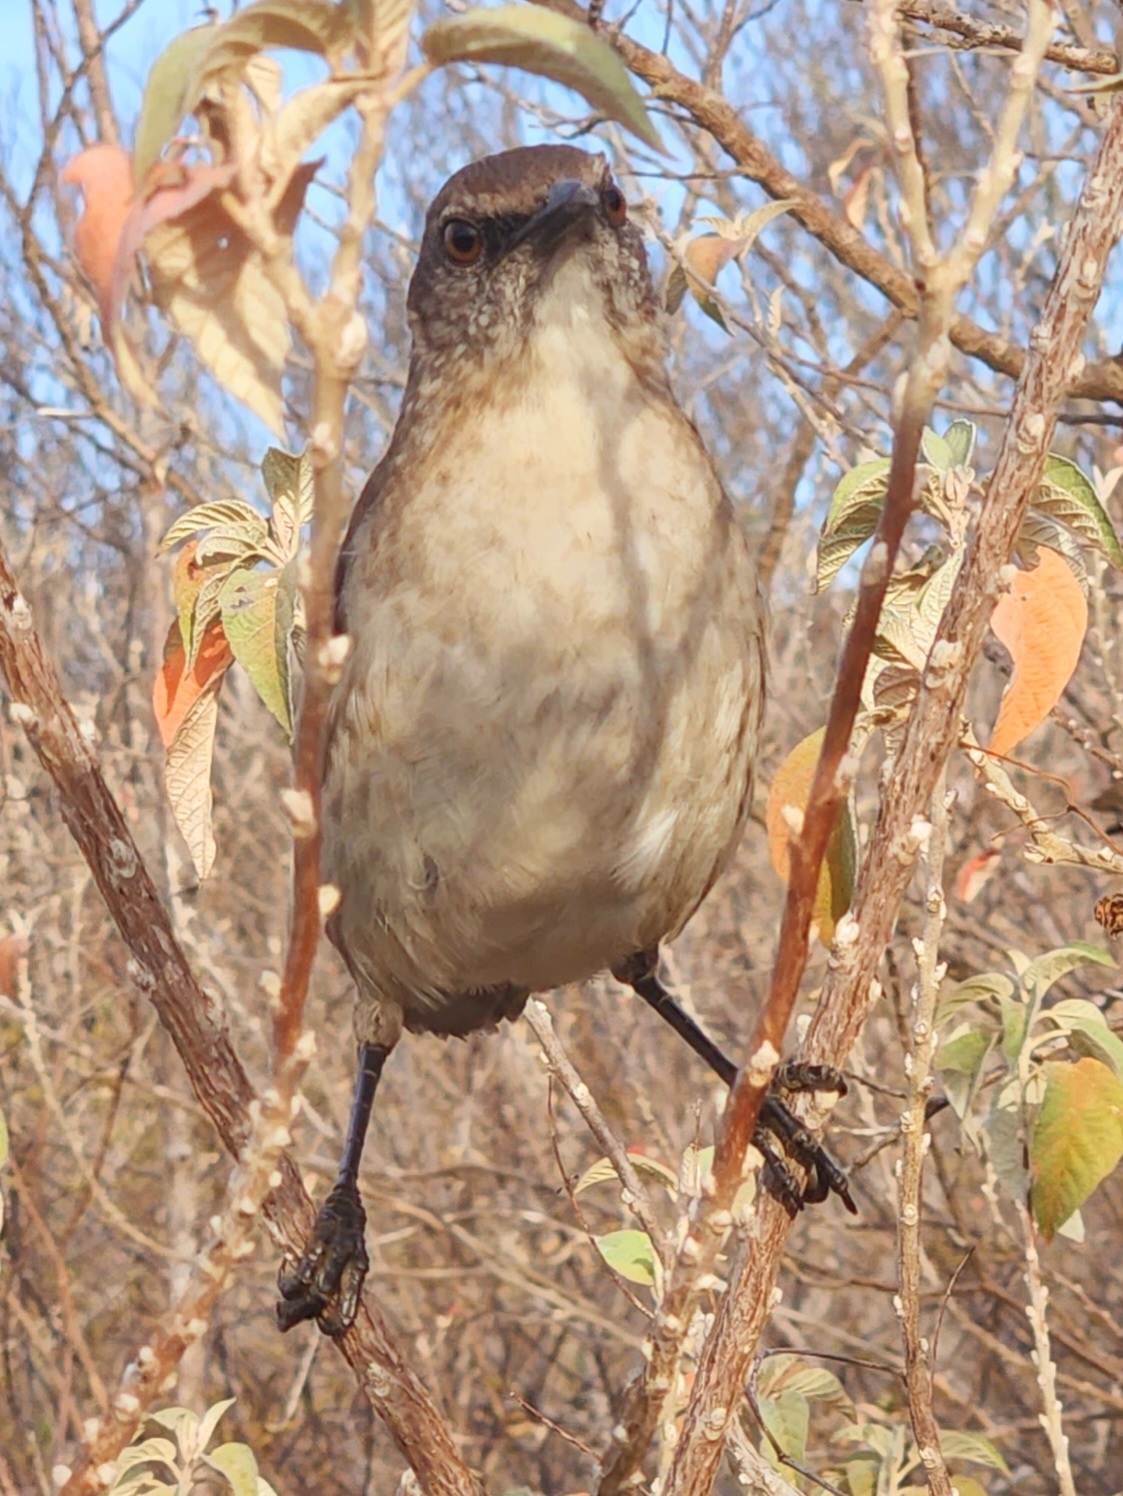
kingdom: Animalia
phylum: Chordata
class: Aves
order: Passeriformes
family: Mimidae
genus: Mimus
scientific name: Mimus graysoni
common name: Socorro mockingbird
